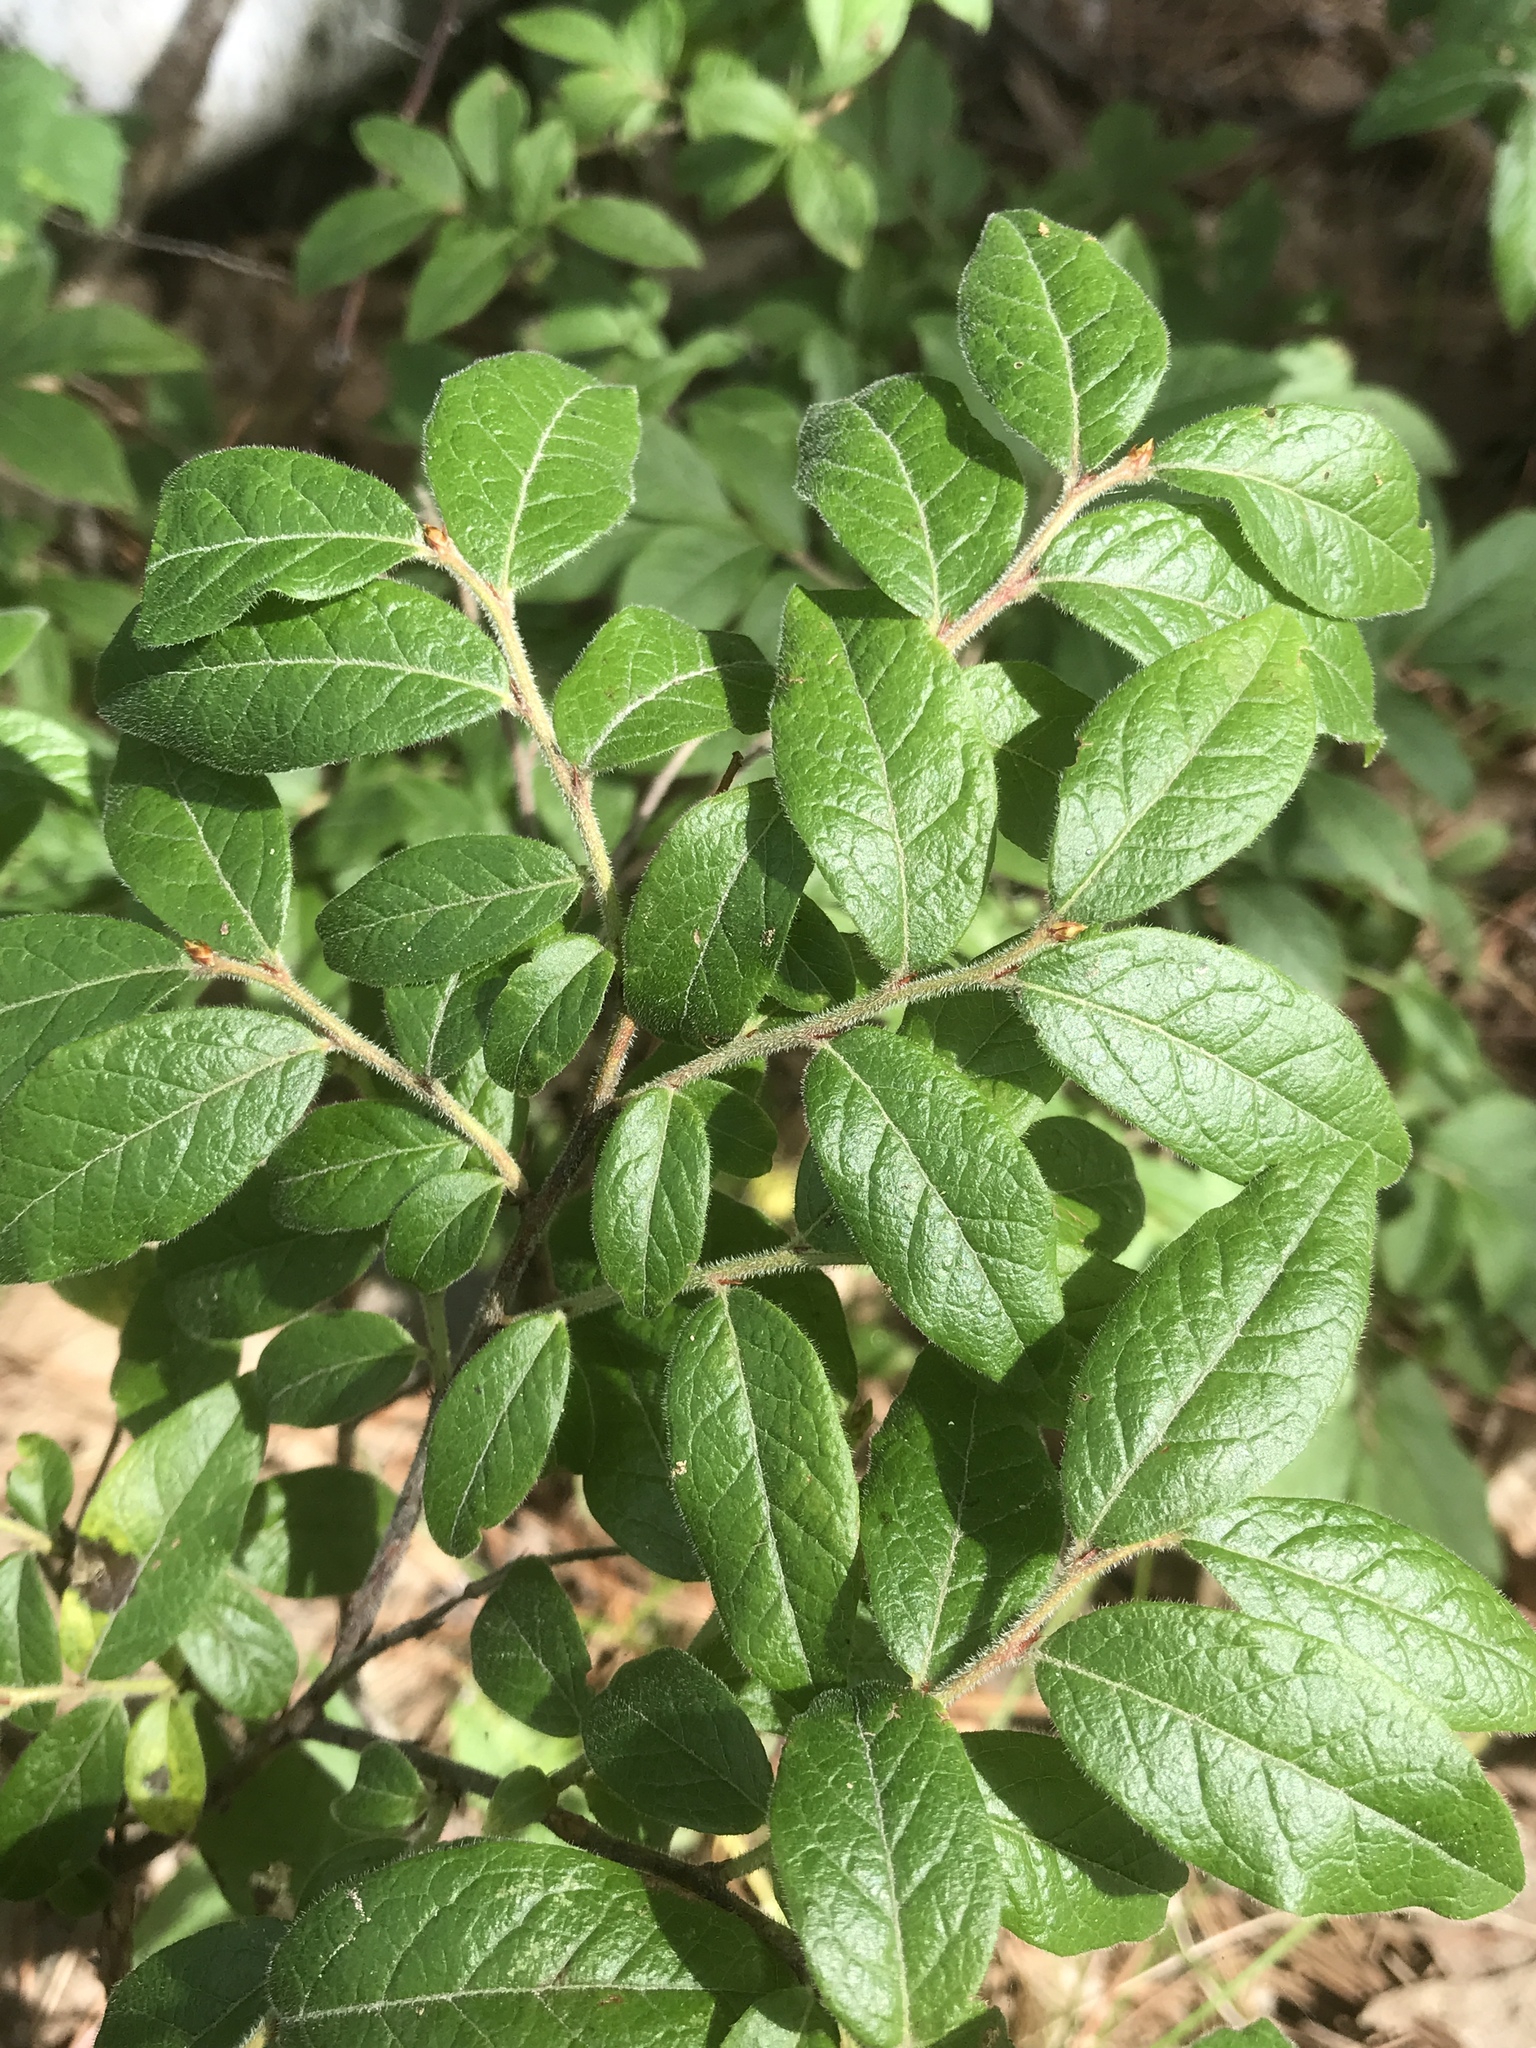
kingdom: Plantae
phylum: Tracheophyta
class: Magnoliopsida
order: Ericales
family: Ericaceae
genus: Vaccinium
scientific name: Vaccinium myrtilloides
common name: Canada blueberry
